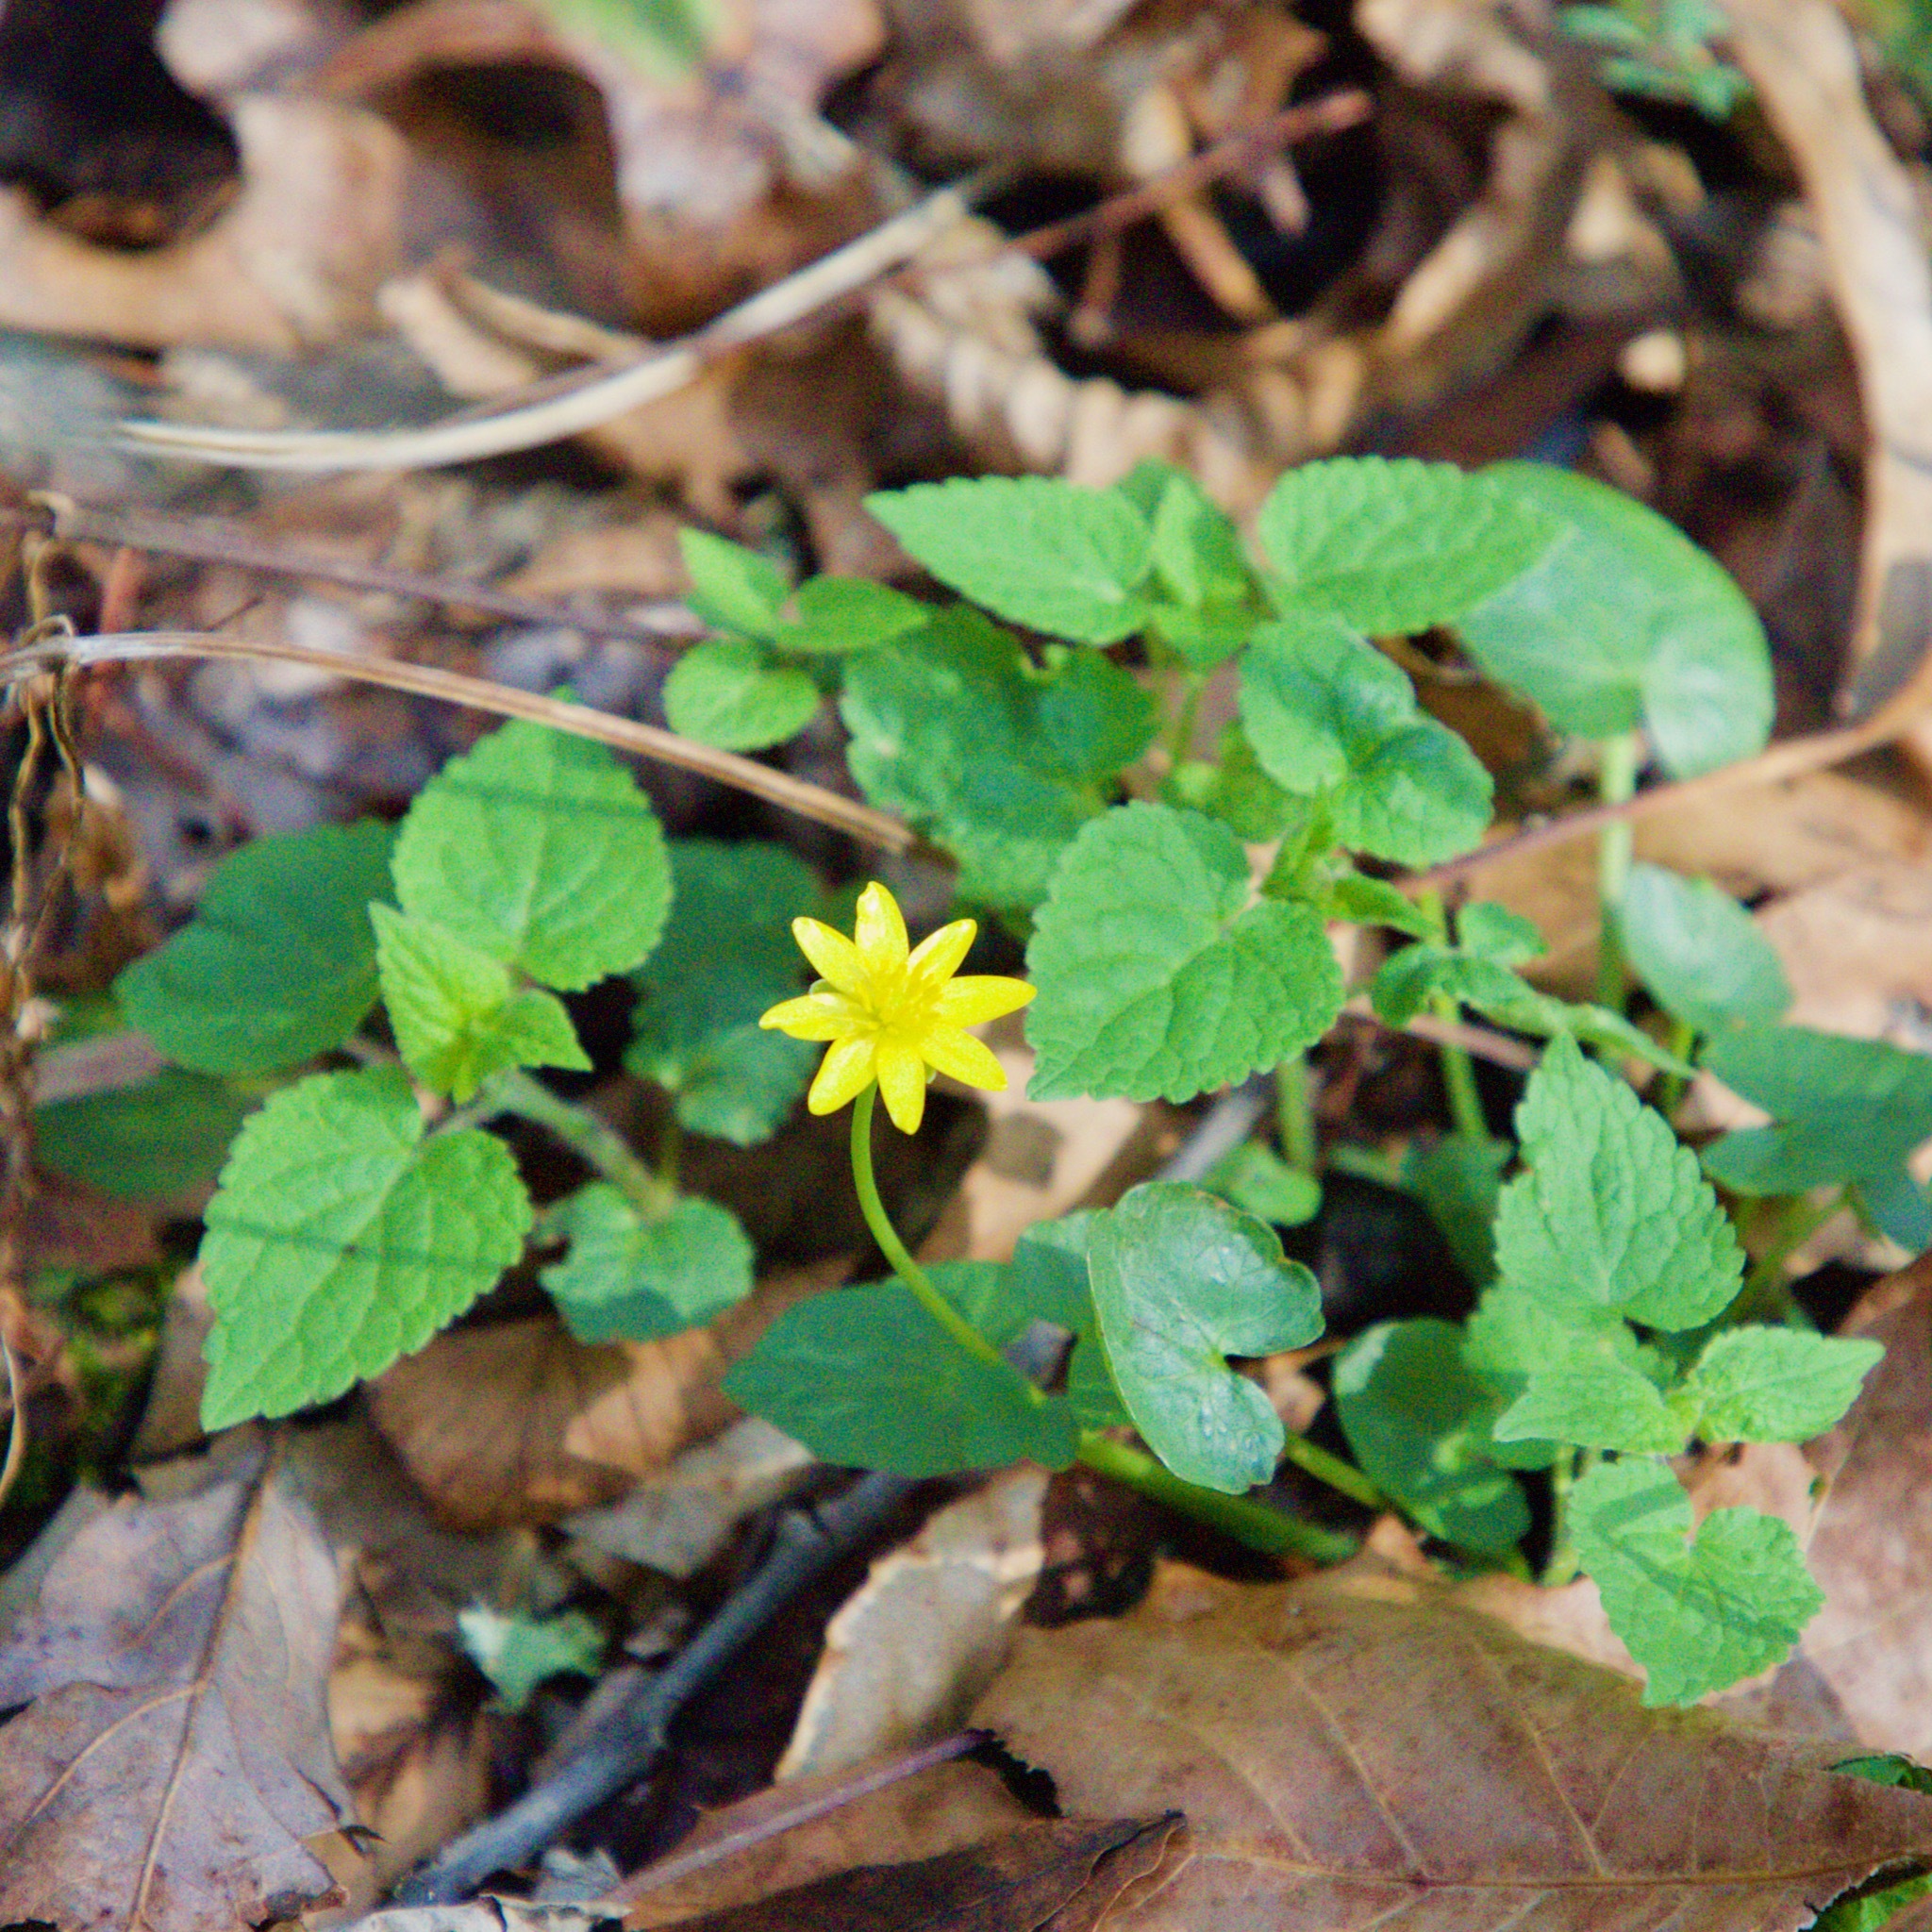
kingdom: Plantae
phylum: Tracheophyta
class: Magnoliopsida
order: Ranunculales
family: Ranunculaceae
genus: Ficaria
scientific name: Ficaria verna
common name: Lesser celandine
